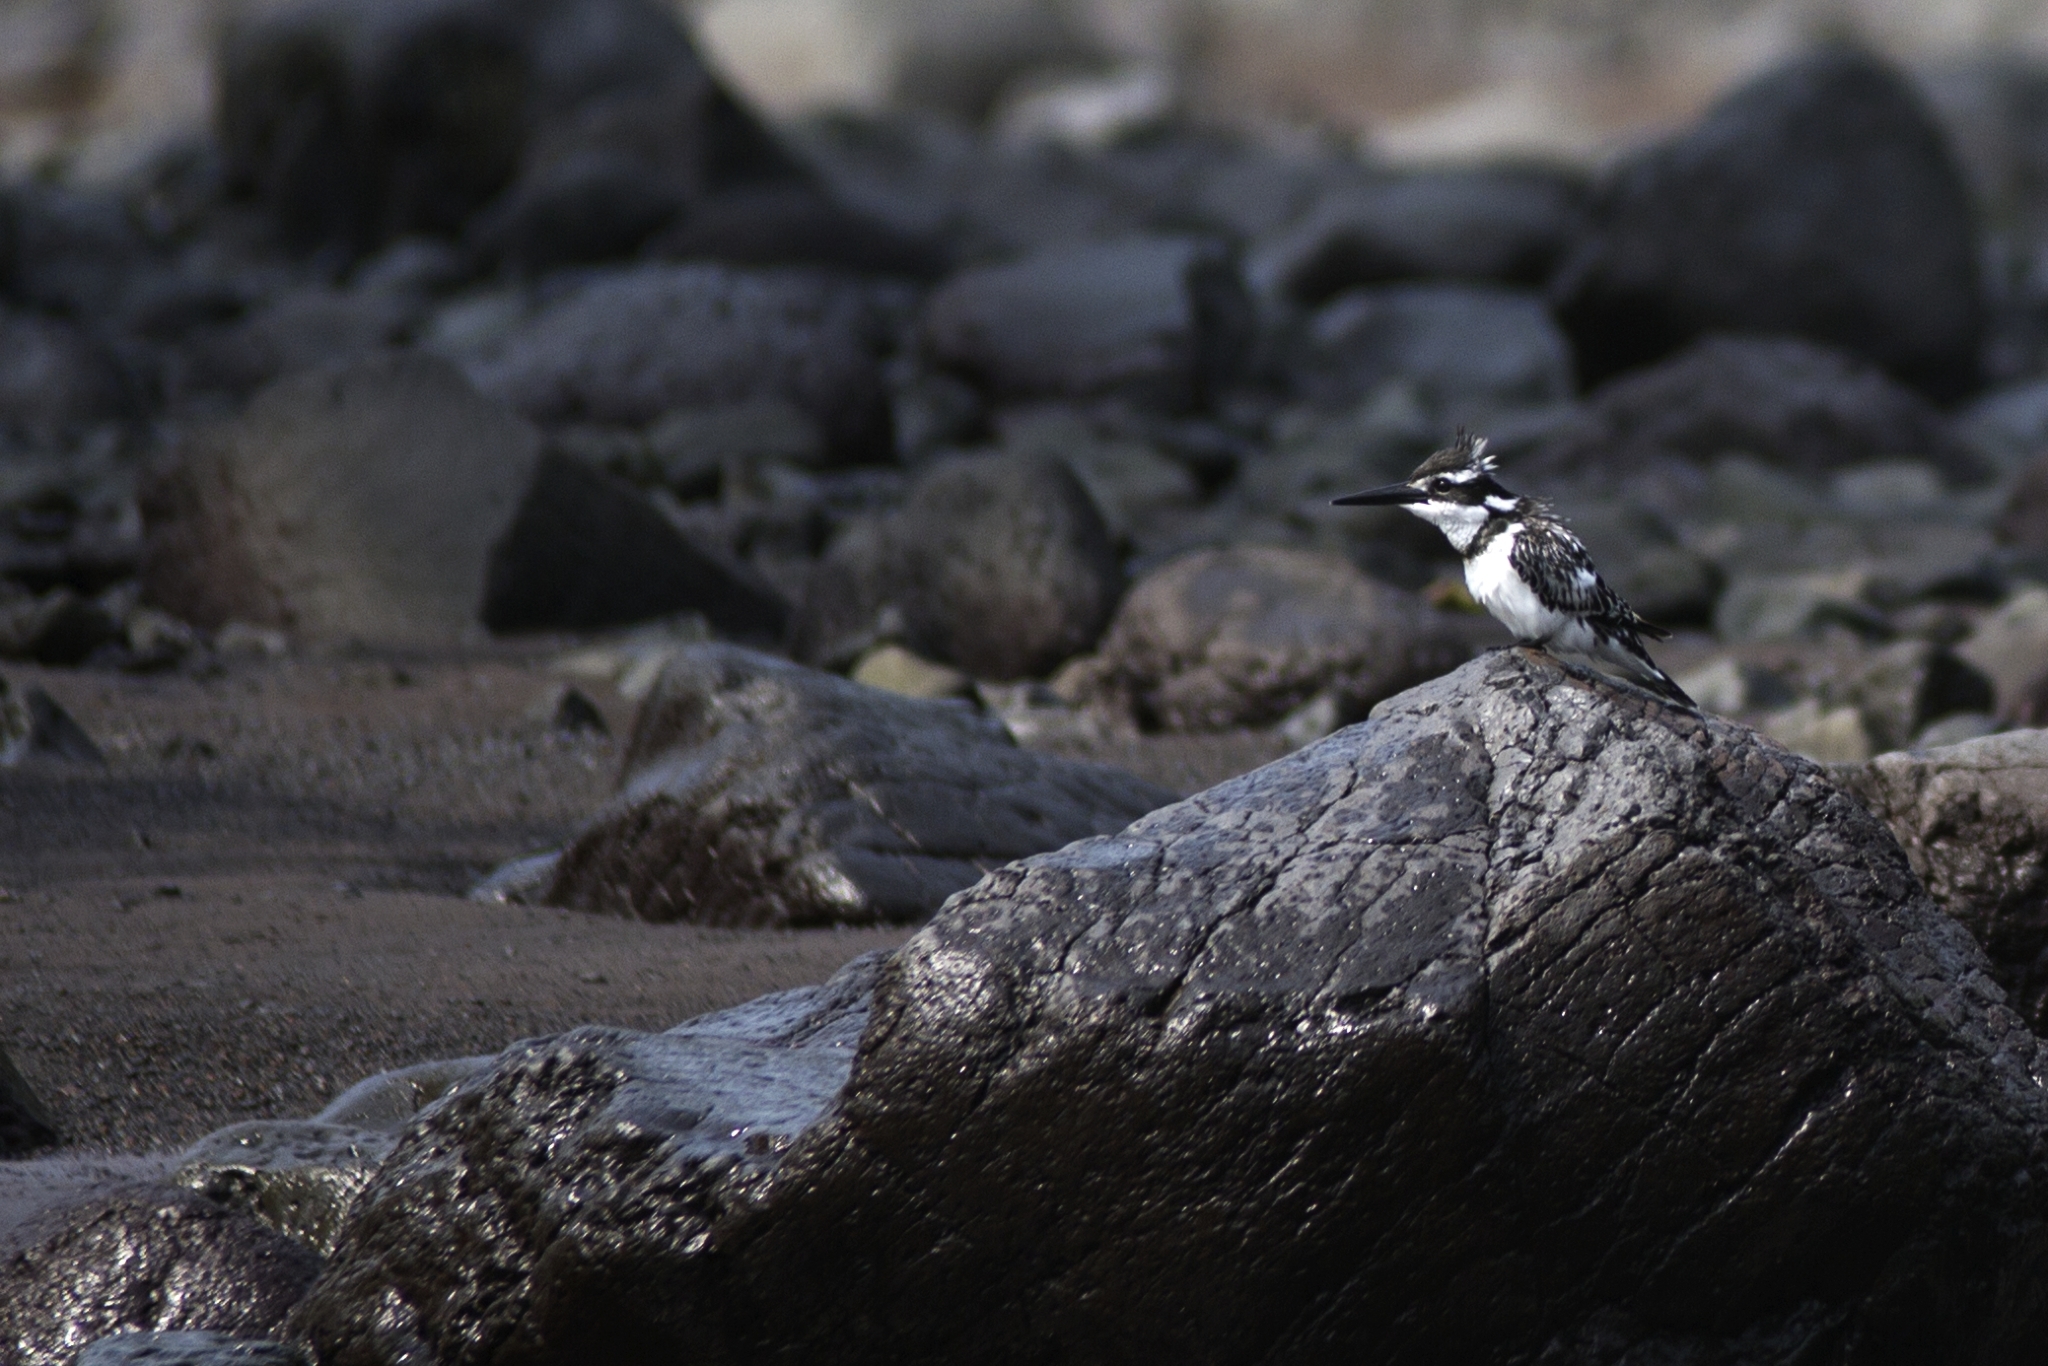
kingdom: Animalia
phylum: Chordata
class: Aves
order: Coraciiformes
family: Alcedinidae
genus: Ceryle
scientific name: Ceryle rudis
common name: Pied kingfisher
